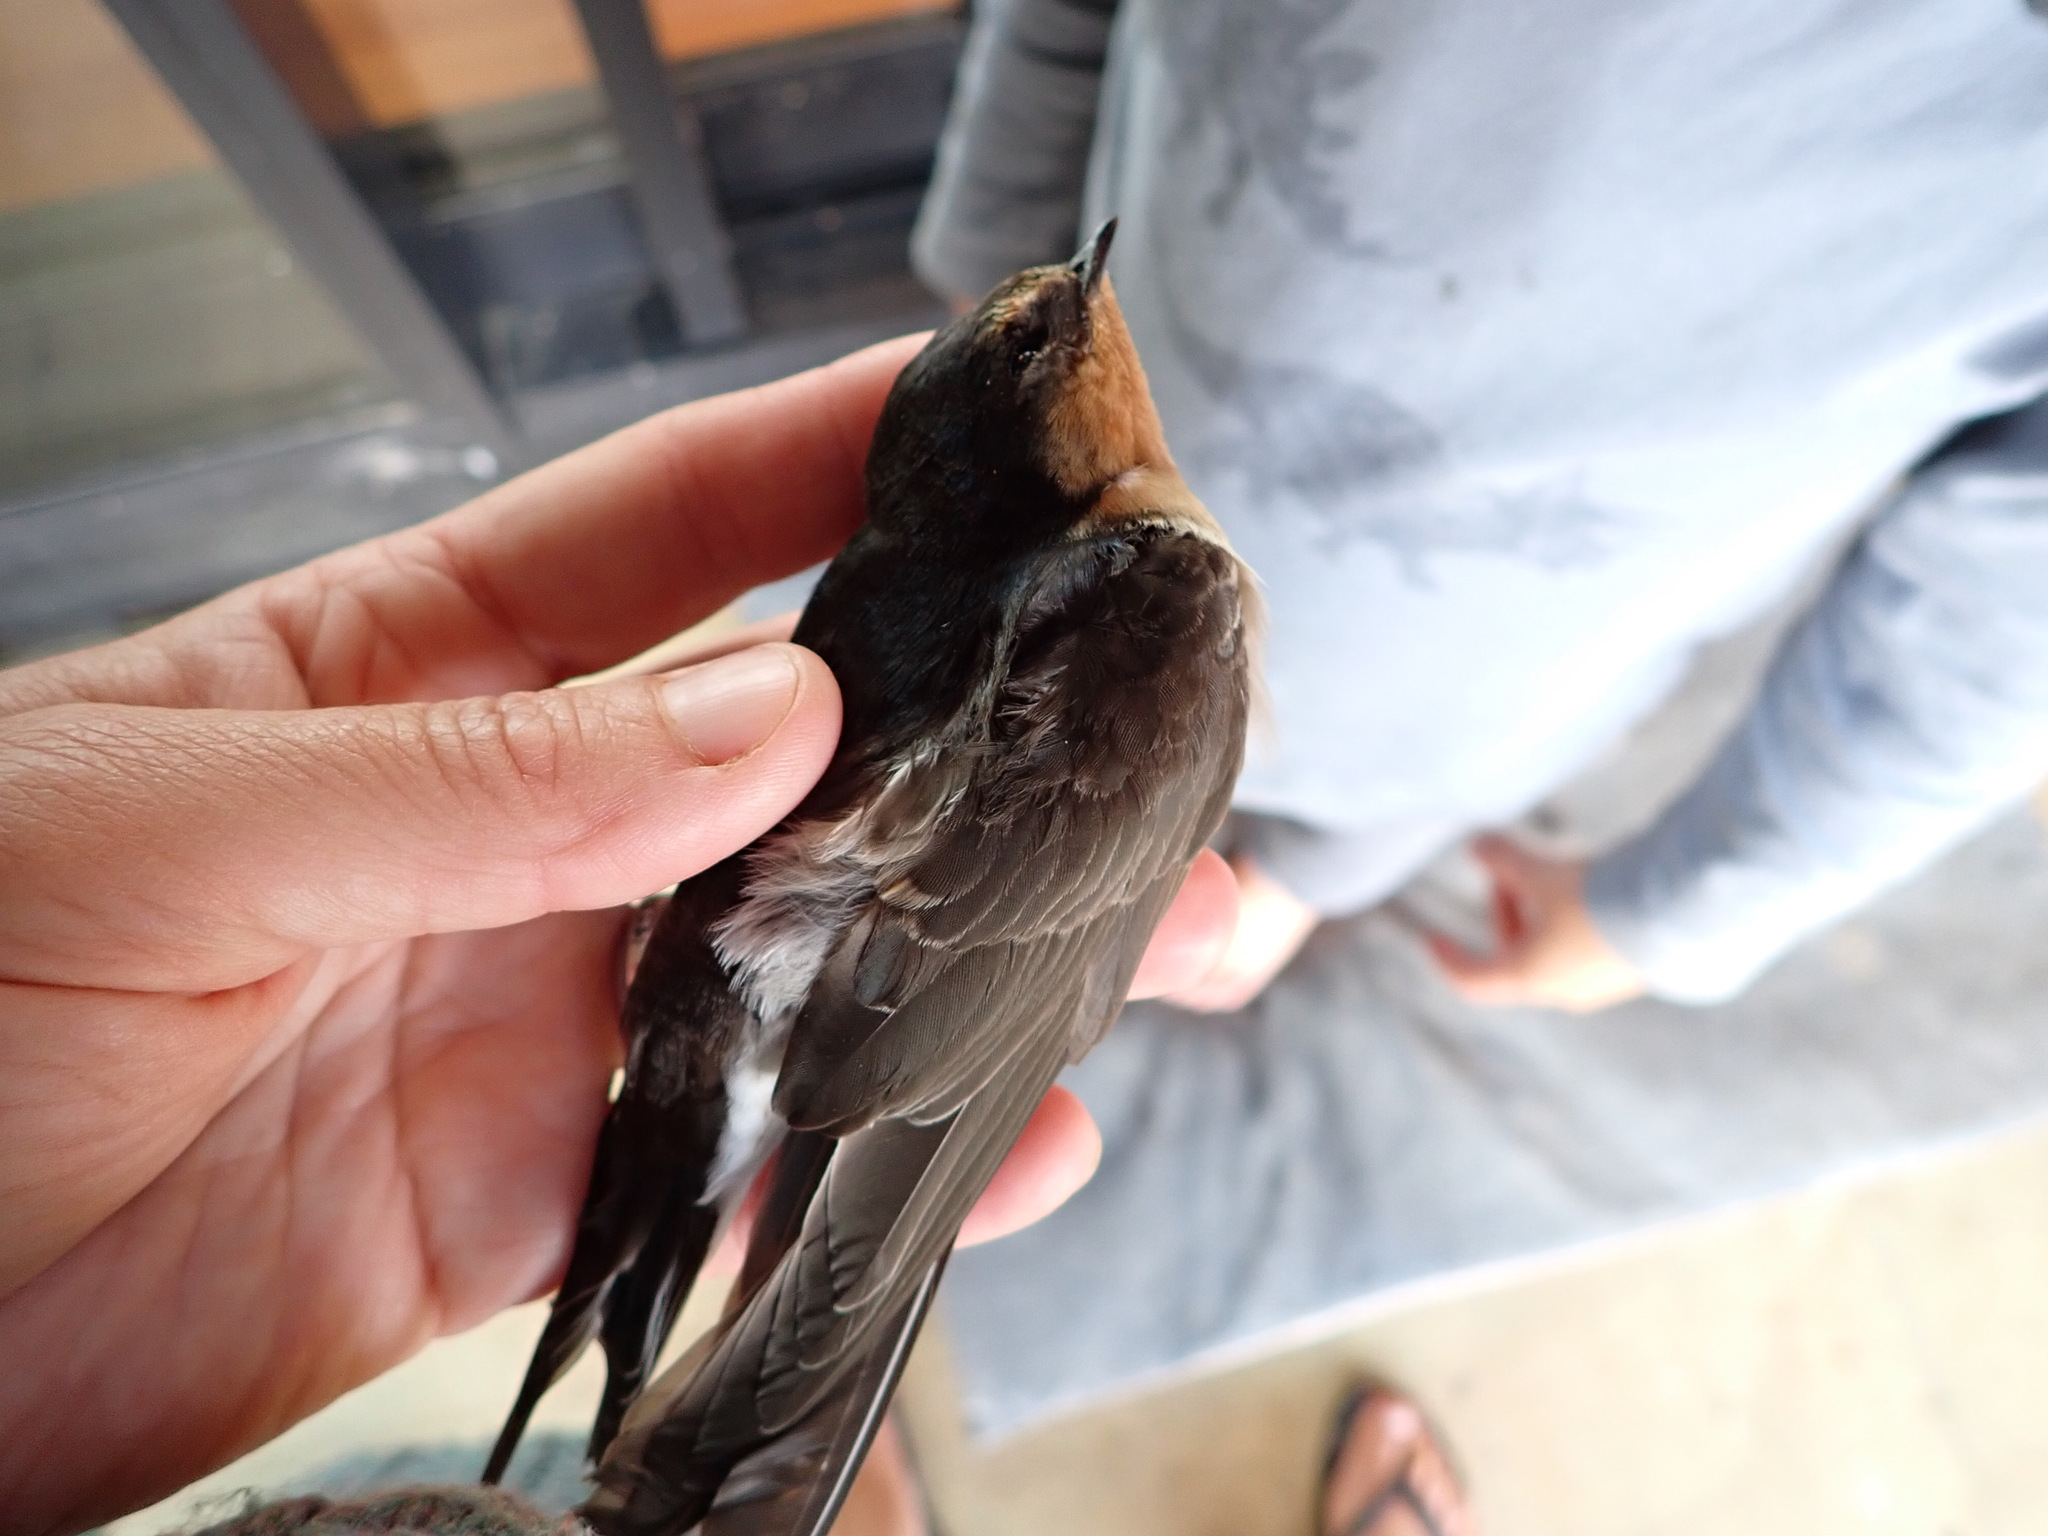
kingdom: Animalia
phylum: Chordata
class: Aves
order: Passeriformes
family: Hirundinidae
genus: Hirundo
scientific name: Hirundo neoxena
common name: Welcome swallow
